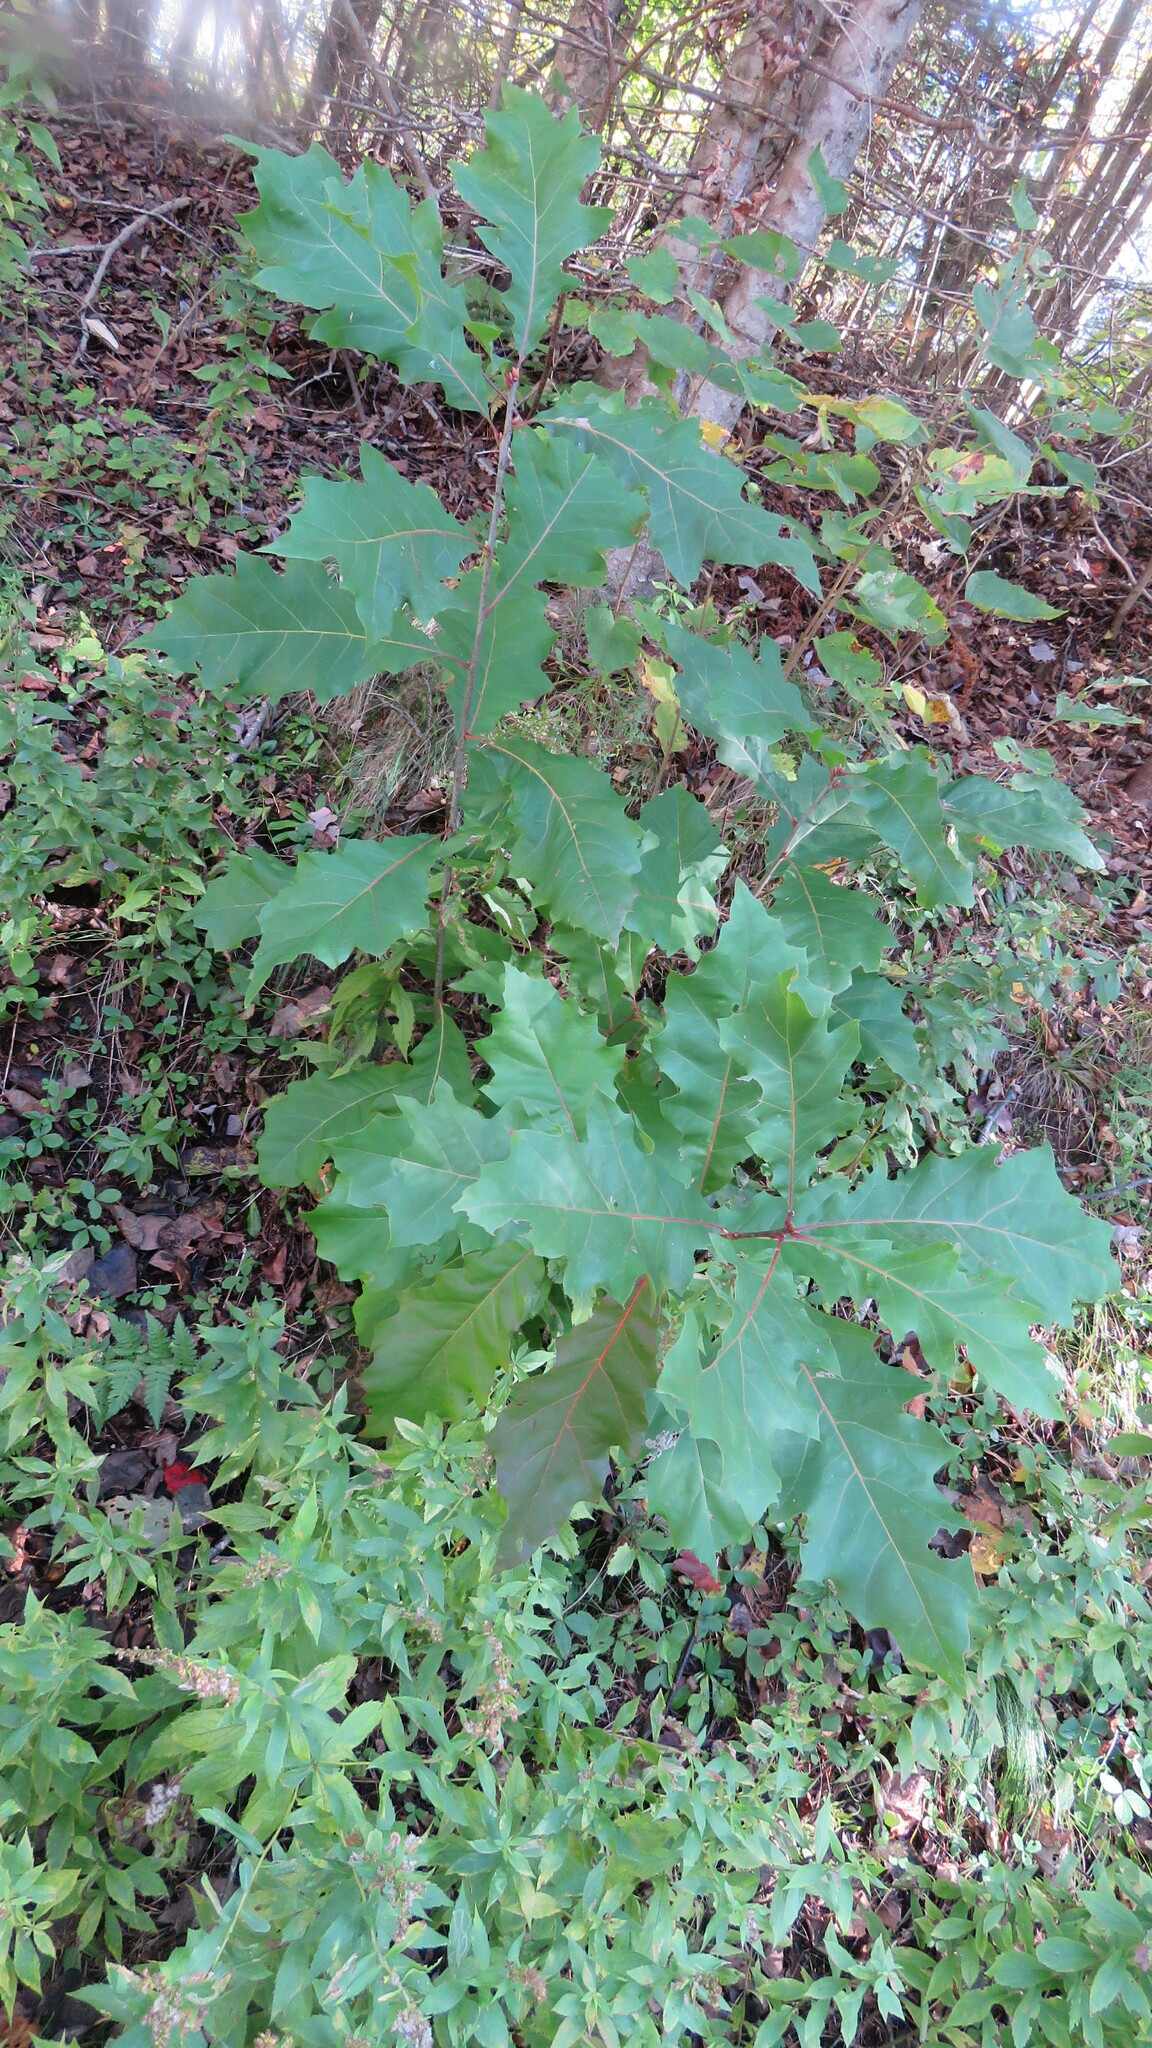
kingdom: Plantae
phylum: Tracheophyta
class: Magnoliopsida
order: Fagales
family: Fagaceae
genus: Quercus
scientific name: Quercus rubra
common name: Red oak
